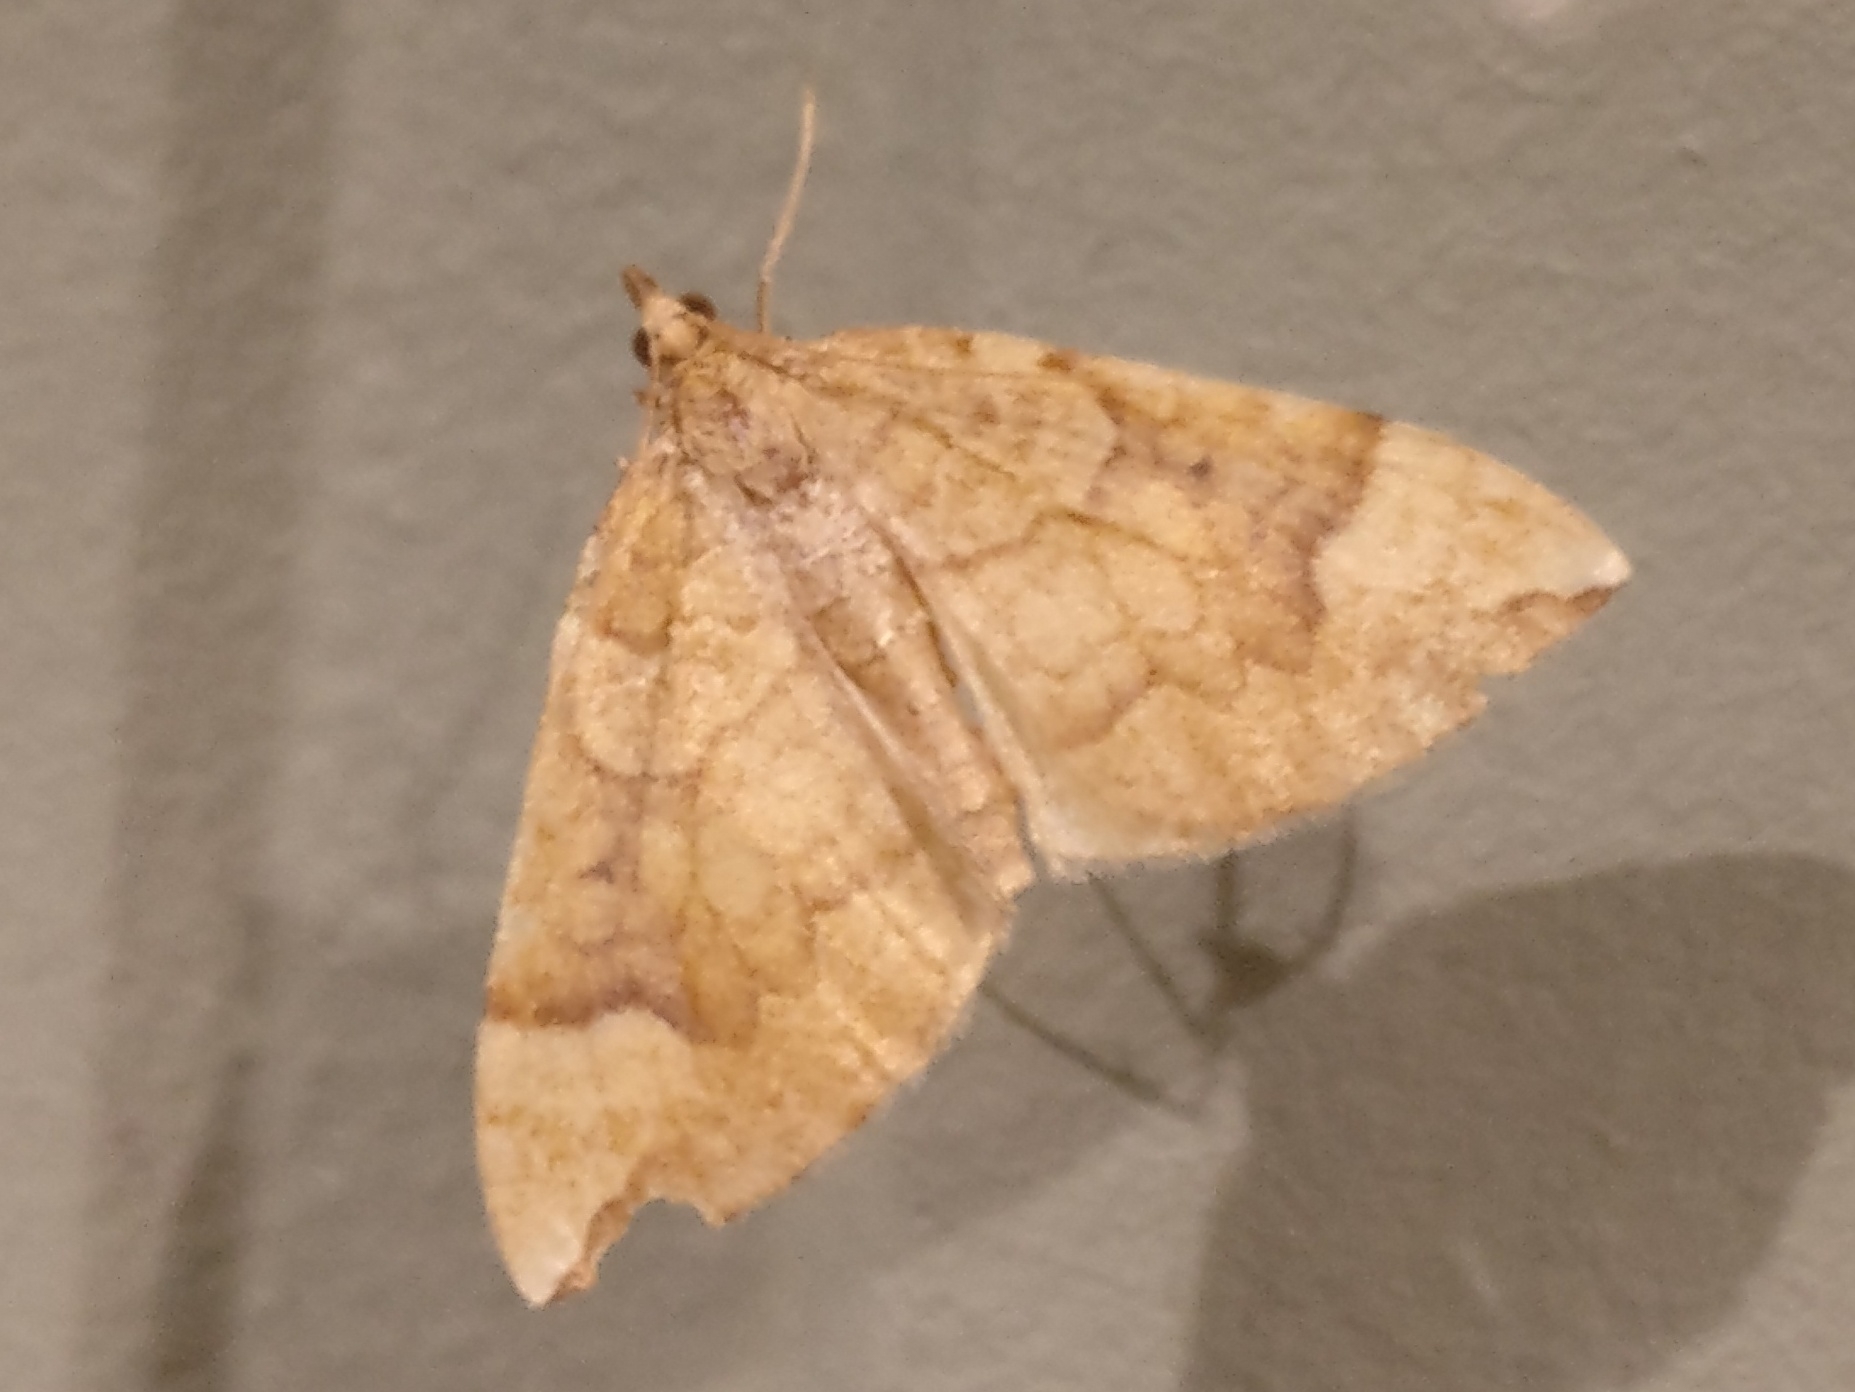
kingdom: Animalia
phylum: Arthropoda
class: Insecta
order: Lepidoptera
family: Geometridae
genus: Eulithis
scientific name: Eulithis populata
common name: Northern spinach
